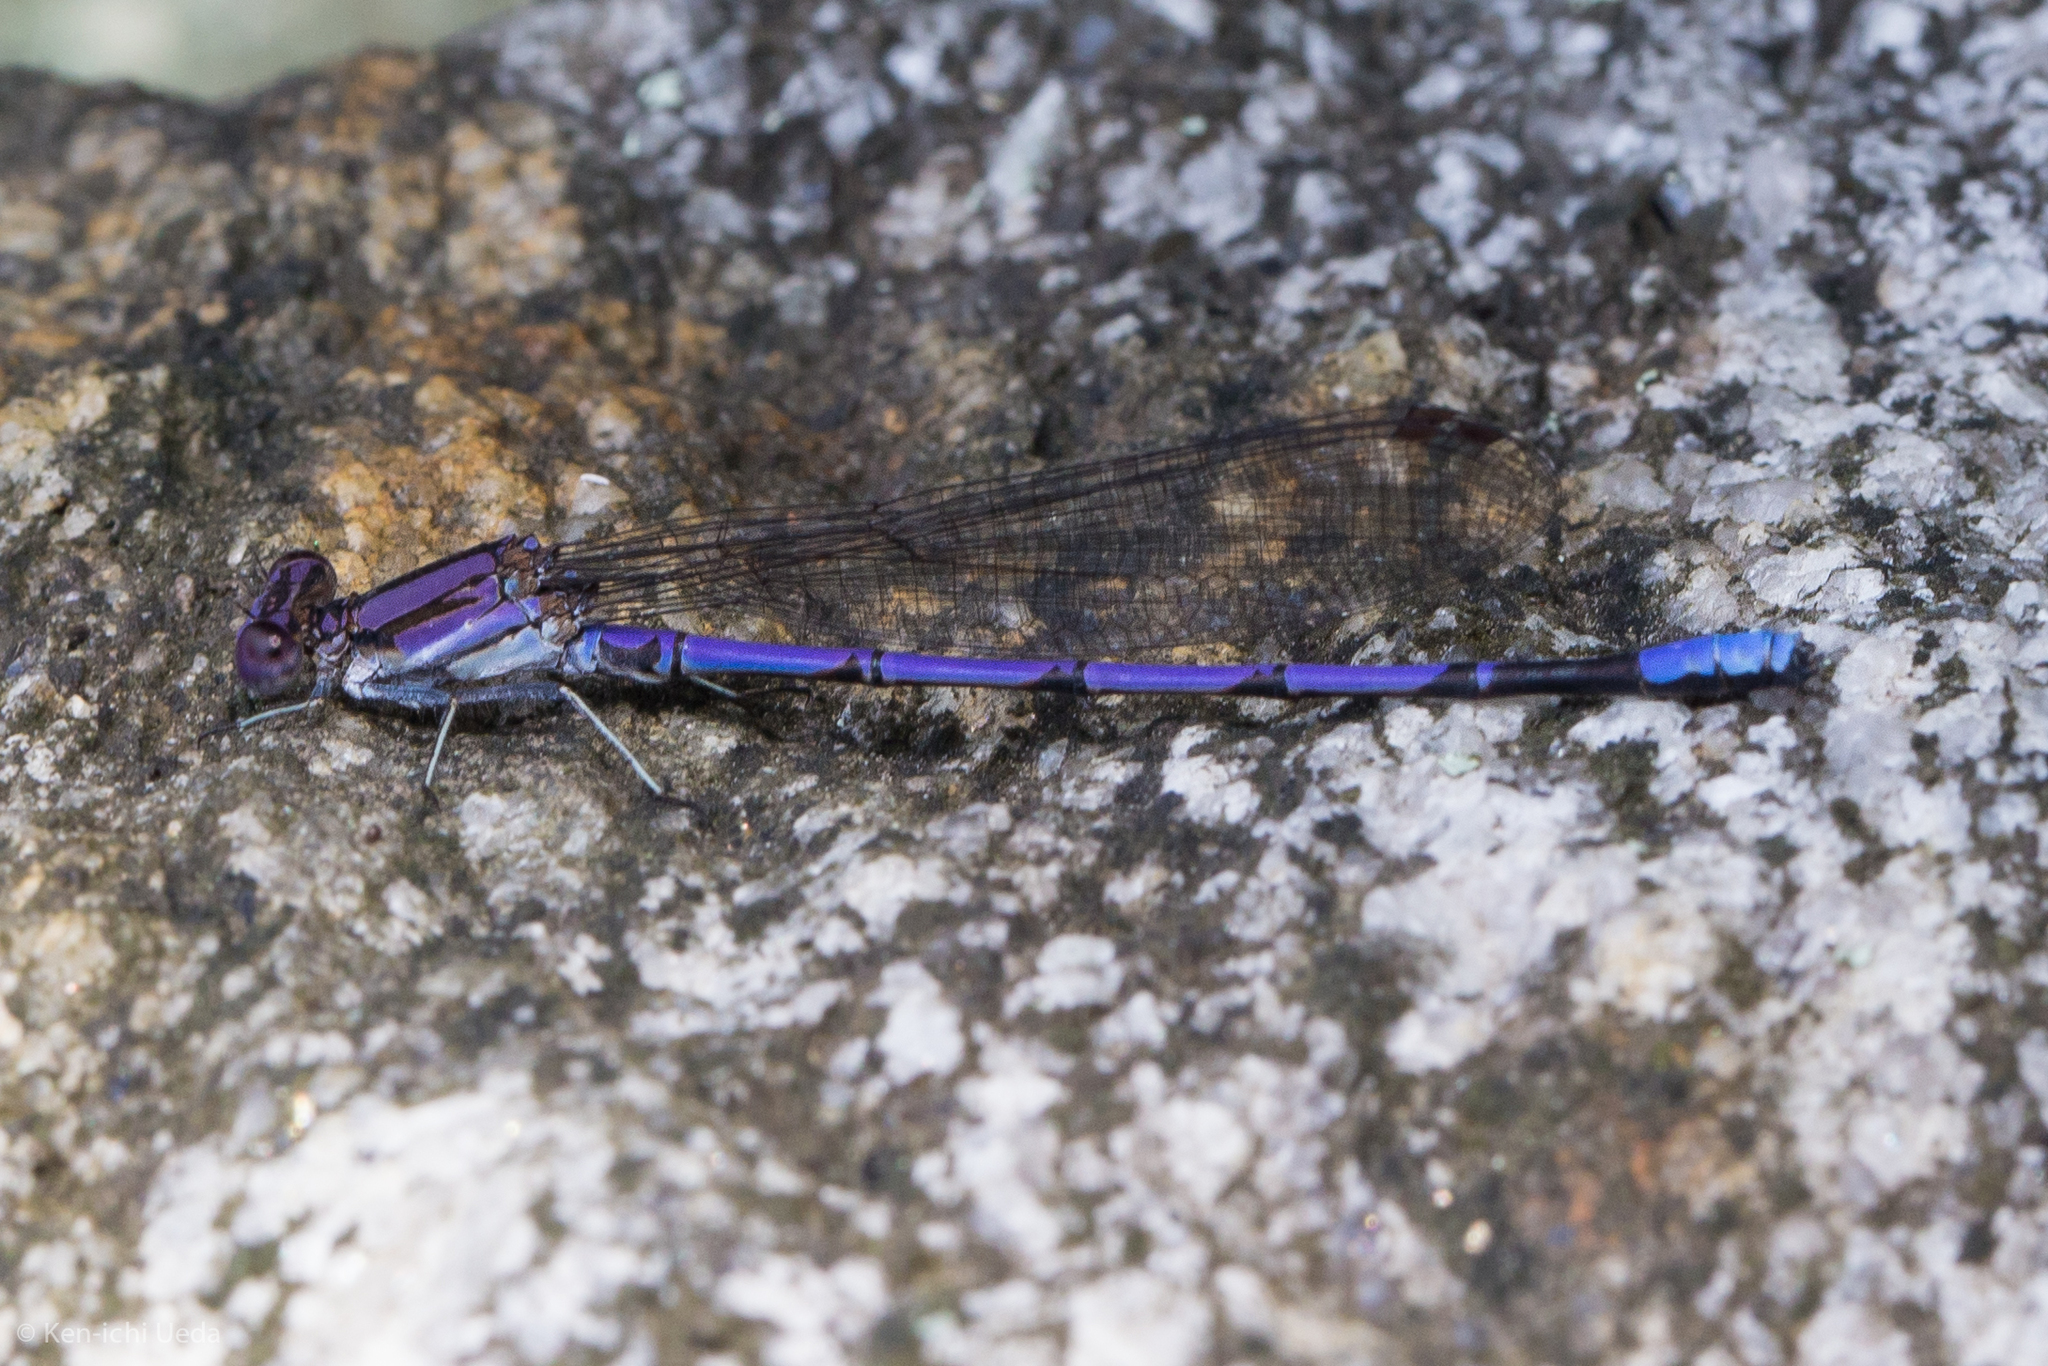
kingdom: Animalia
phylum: Arthropoda
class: Insecta
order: Odonata
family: Coenagrionidae
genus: Argia
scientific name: Argia fumipennis
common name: Variable dancer
